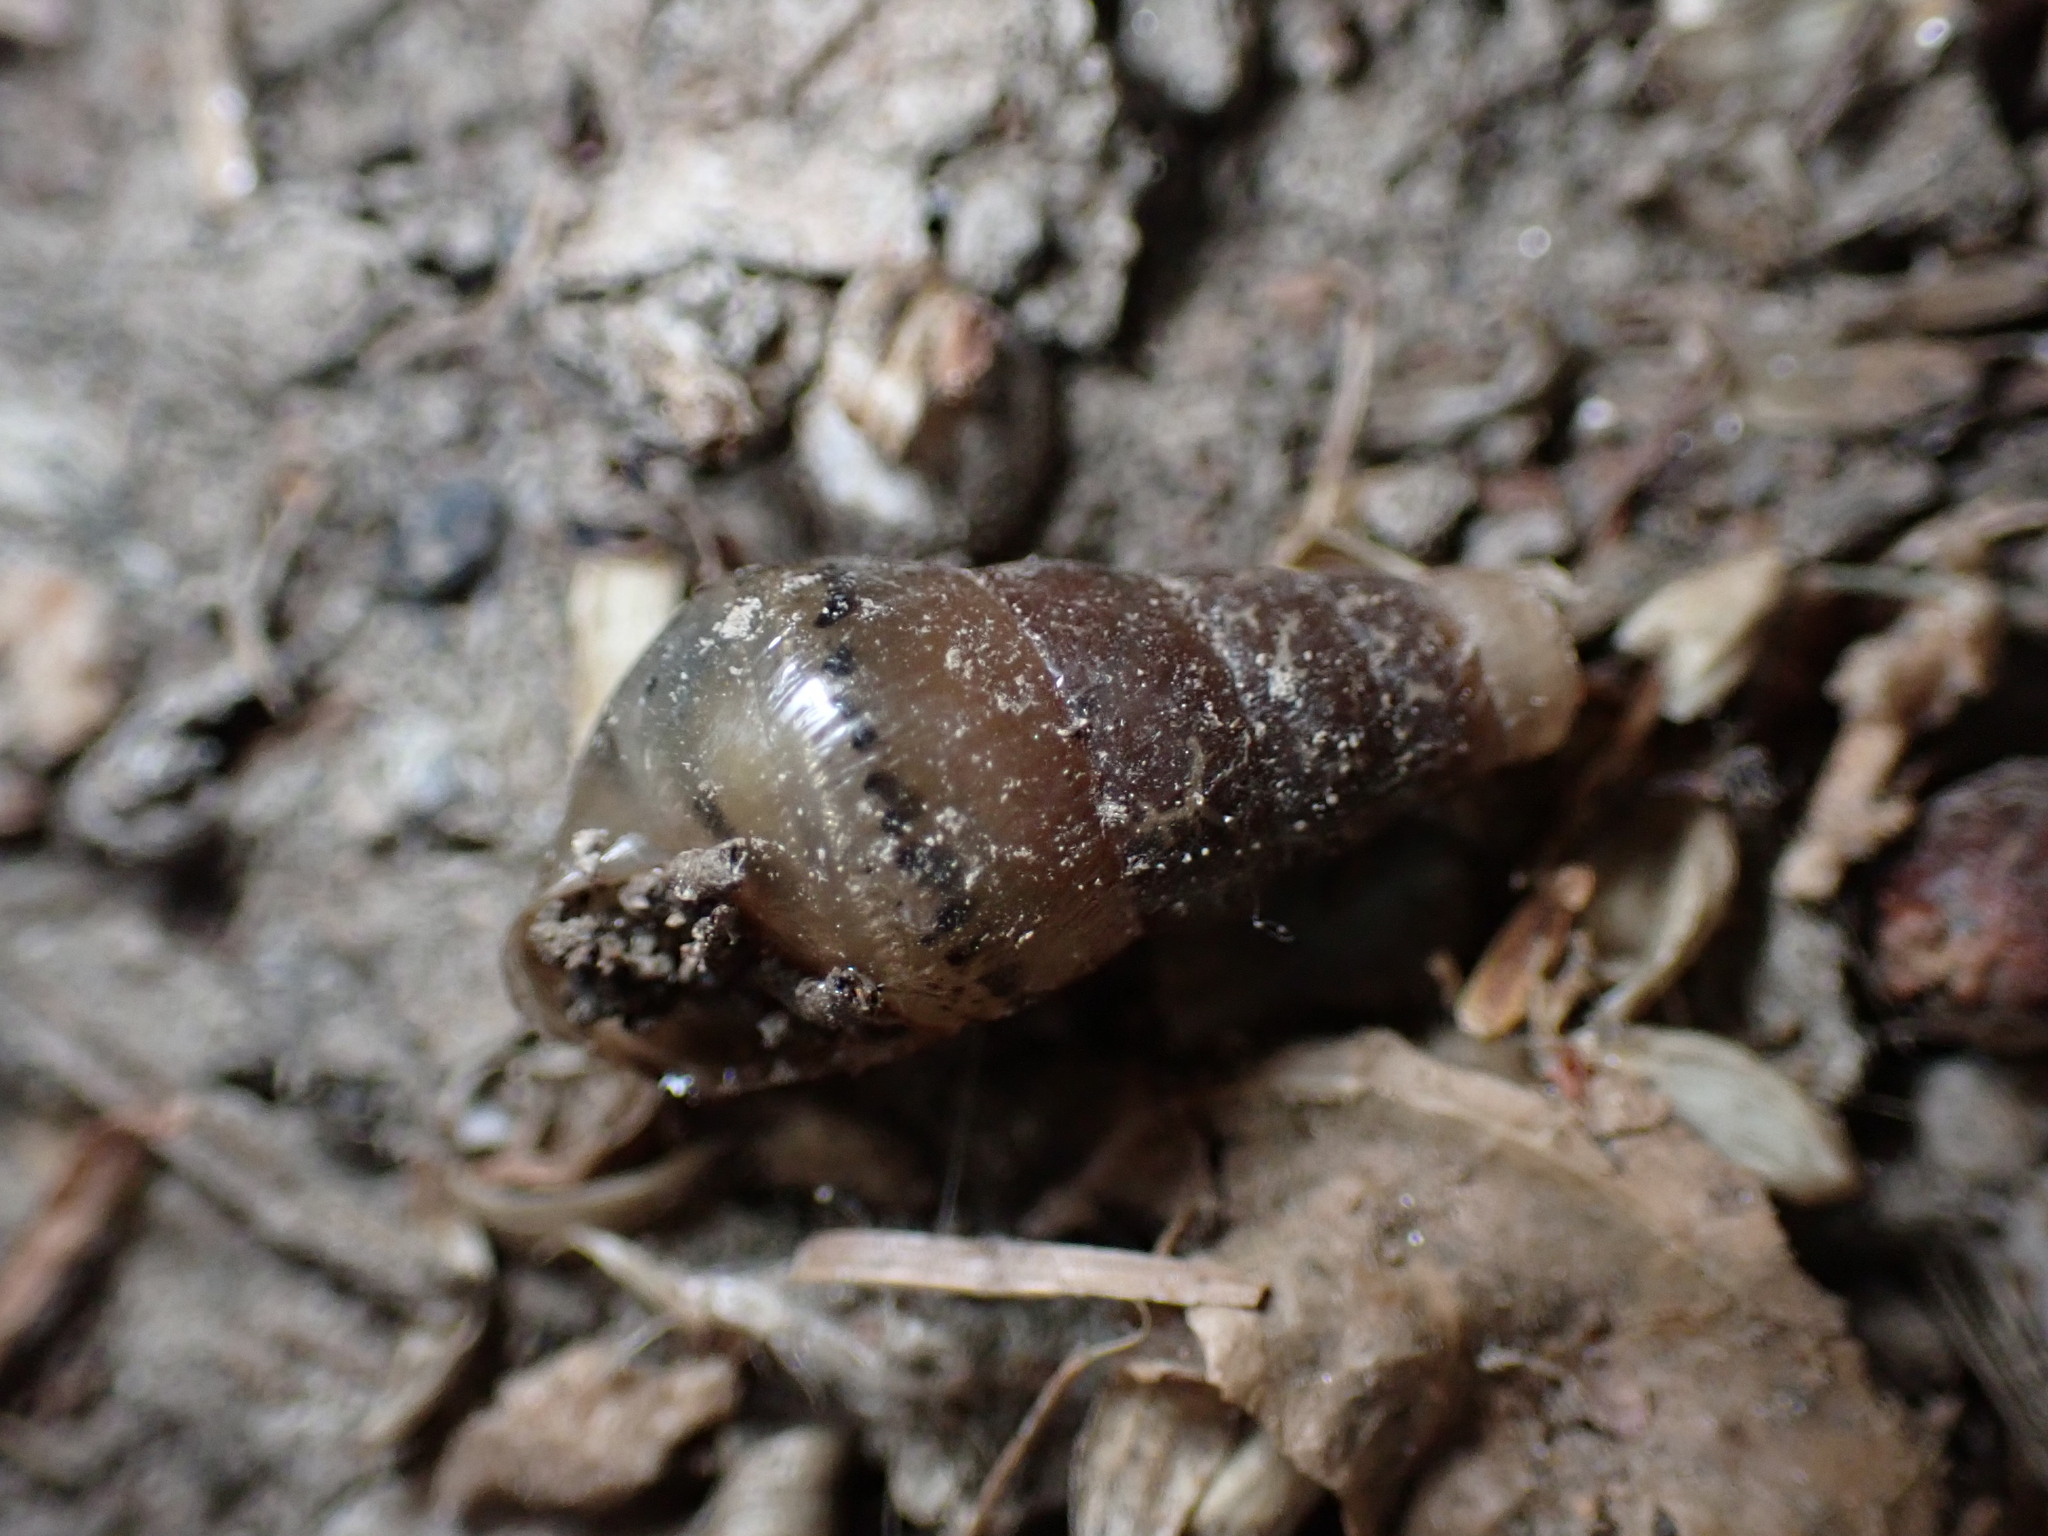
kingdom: Animalia
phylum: Mollusca
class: Gastropoda
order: Stylommatophora
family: Achatinidae
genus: Rumina
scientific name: Rumina decollata
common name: Decollate snail
